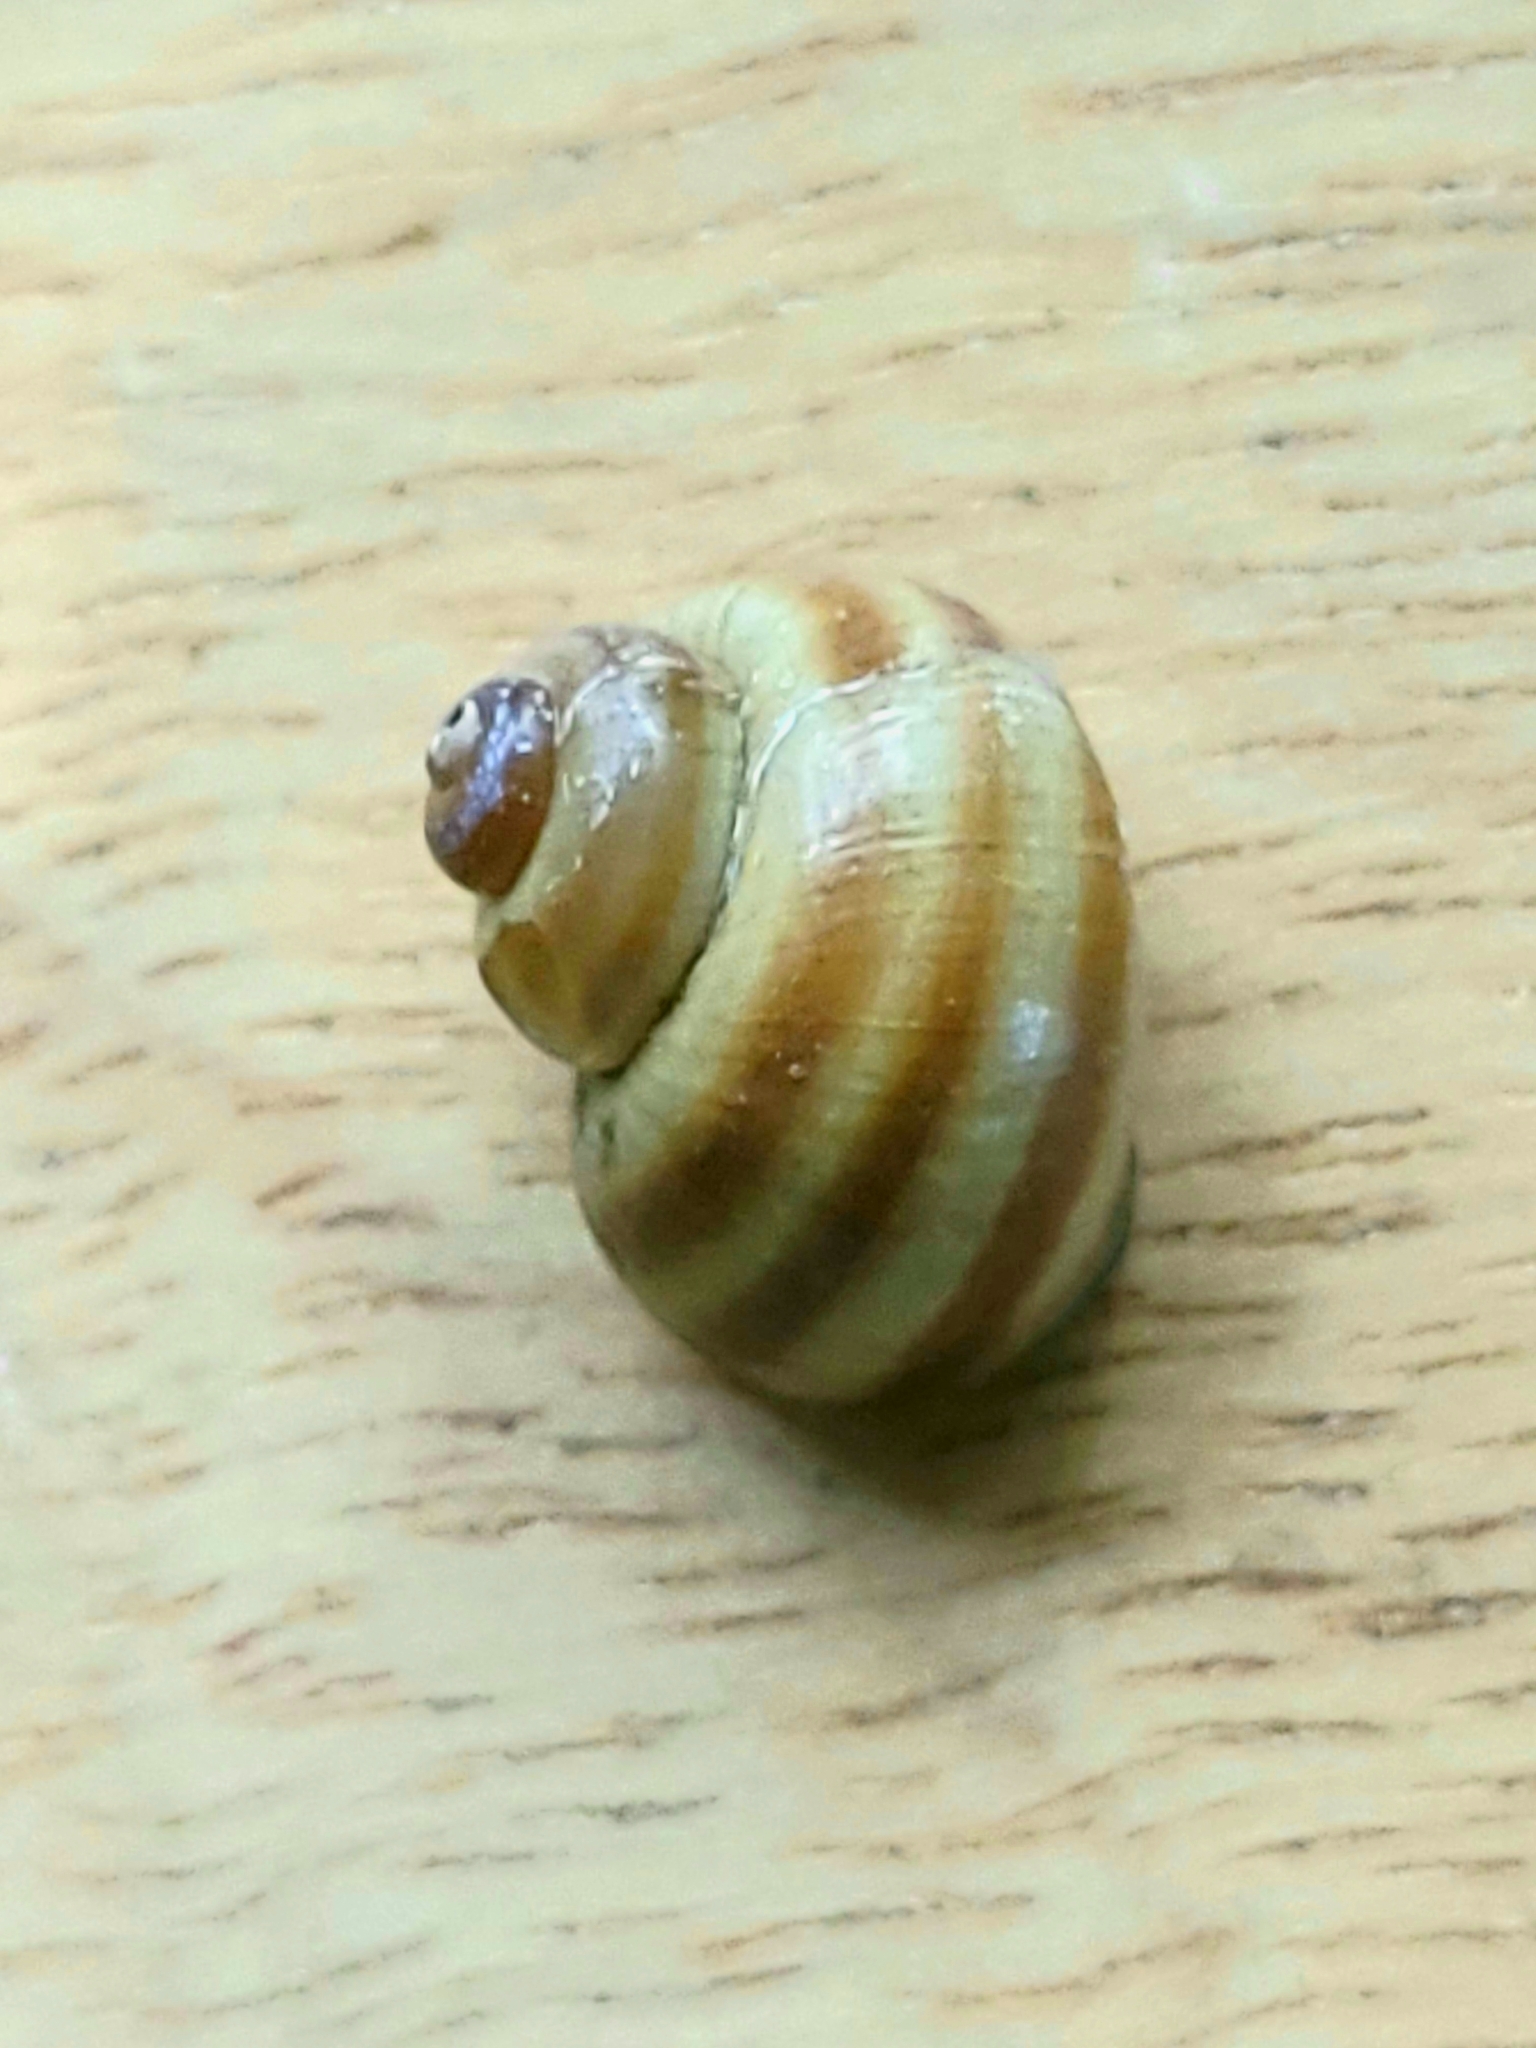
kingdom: Animalia
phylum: Mollusca
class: Gastropoda
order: Architaenioglossa
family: Viviparidae
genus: Callinina
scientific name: Callinina georgiana
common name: Banded mystery snail
